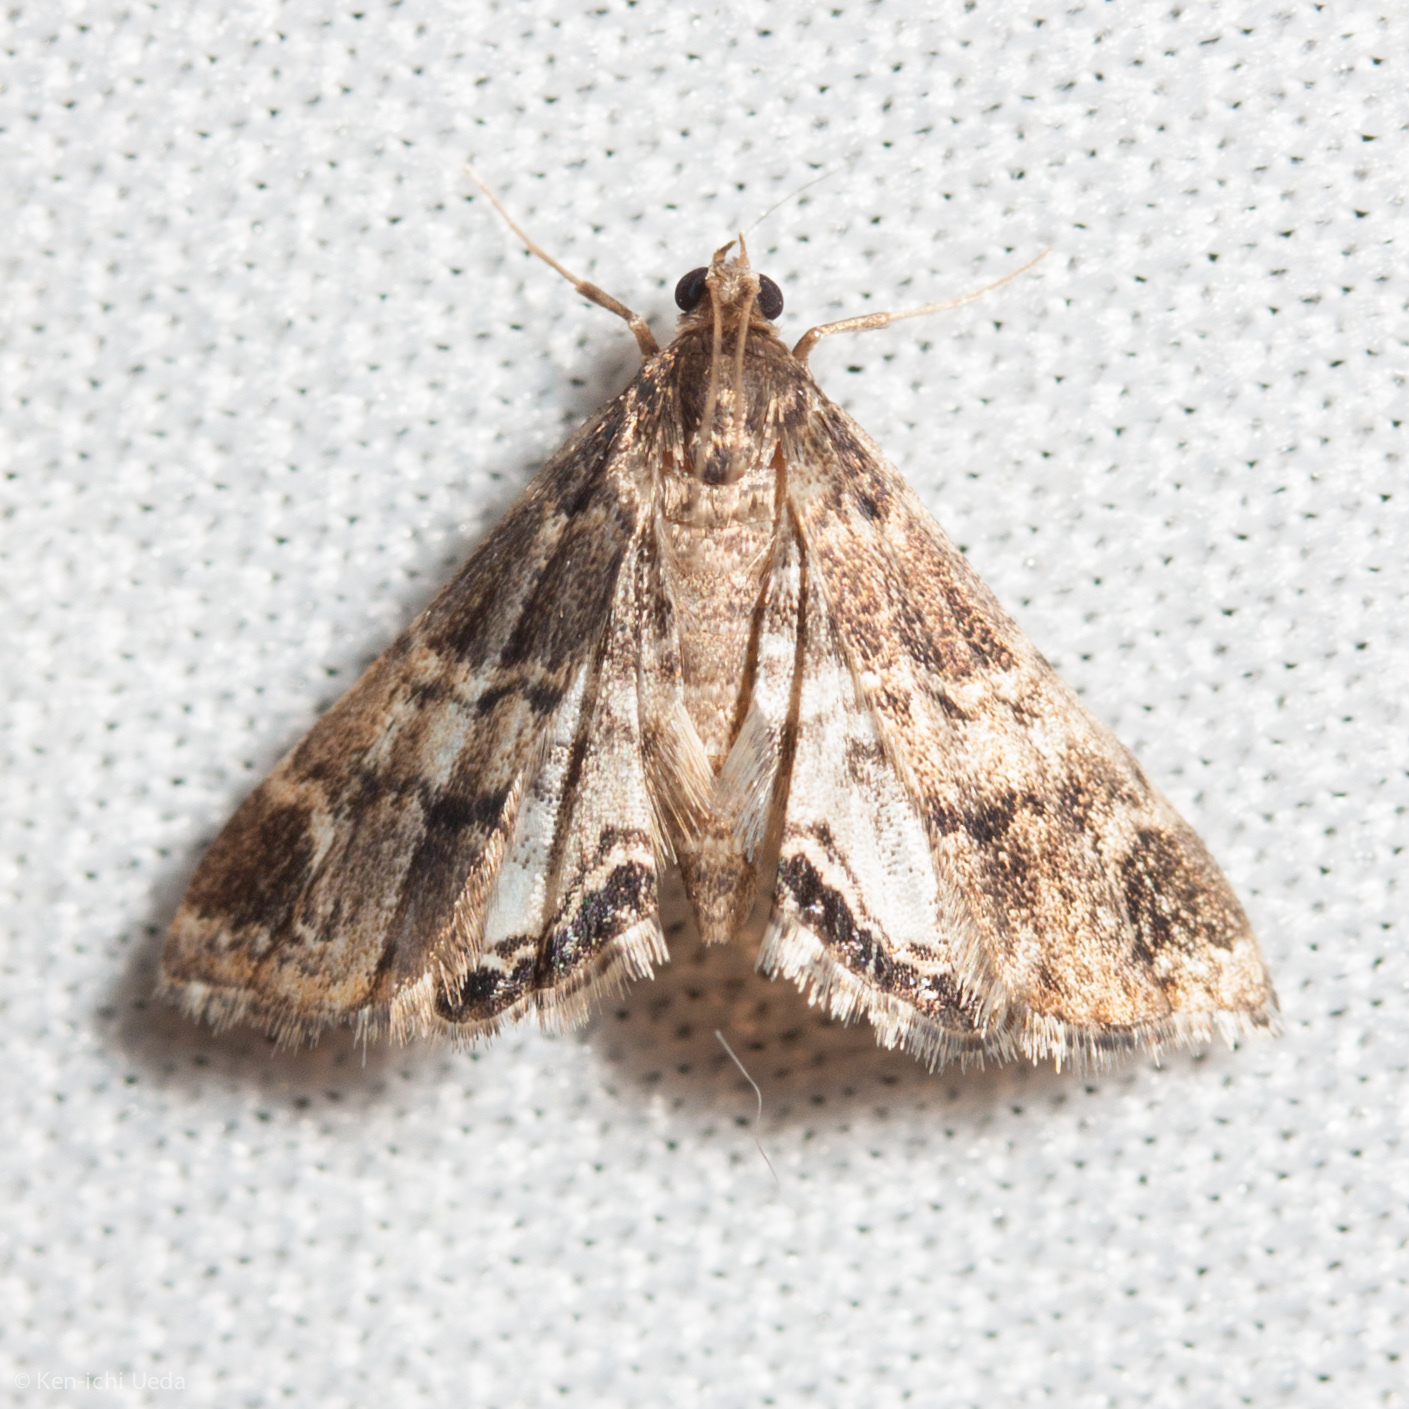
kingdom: Animalia
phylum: Arthropoda
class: Insecta
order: Lepidoptera
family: Crambidae
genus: Usingeriessa
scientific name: Usingeriessa brunnildalis
